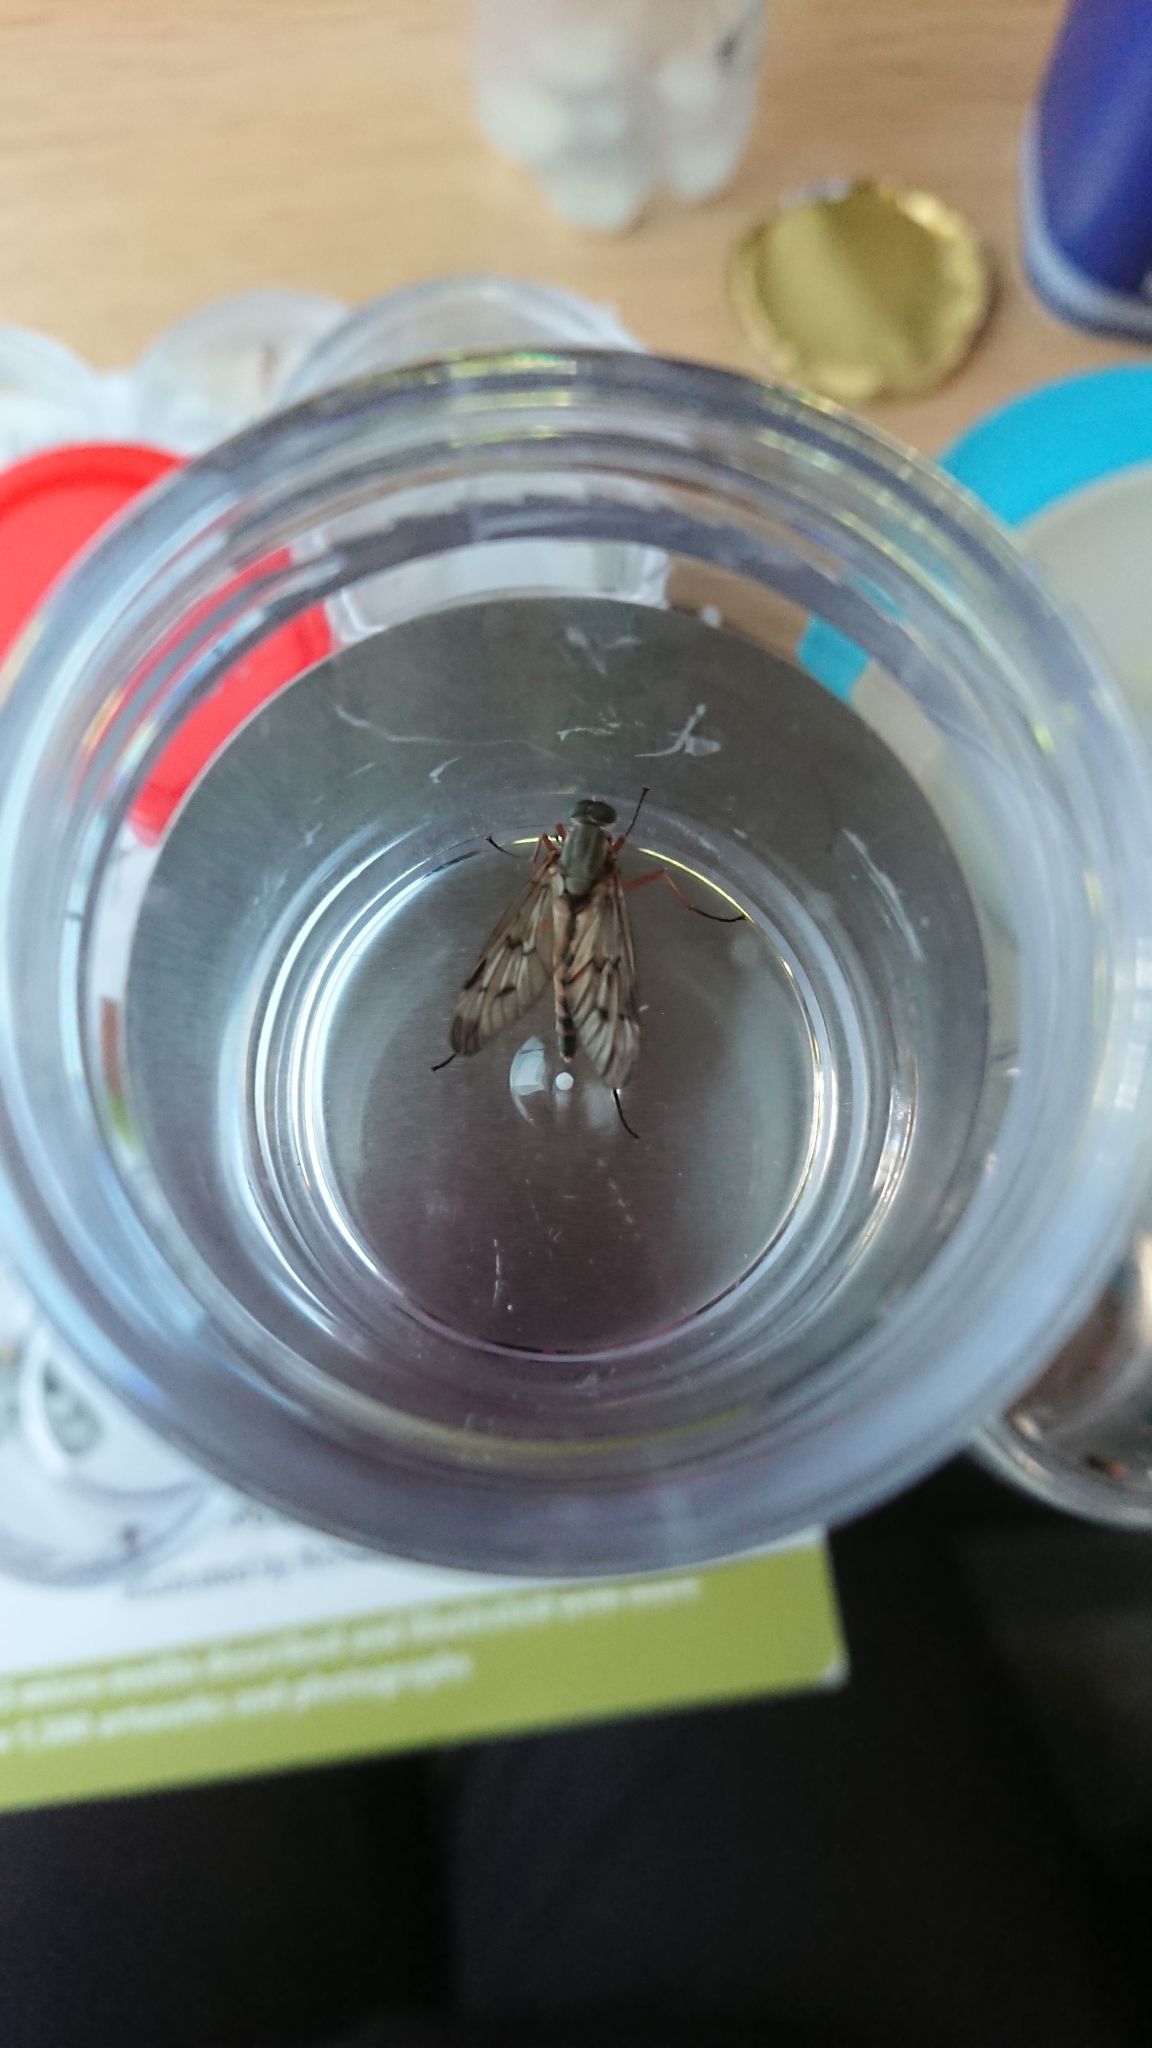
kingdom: Animalia
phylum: Arthropoda
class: Insecta
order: Diptera
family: Rhagionidae
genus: Rhagio
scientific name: Rhagio scolopacea
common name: Downlooker snipefly
